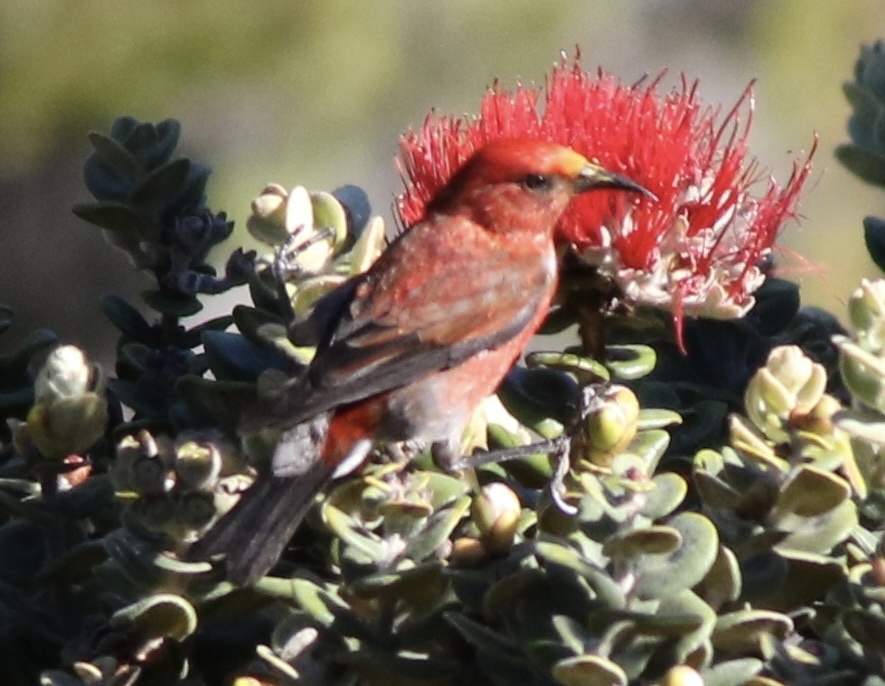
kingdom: Animalia
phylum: Chordata
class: Aves
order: Passeriformes
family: Fringillidae
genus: Himatione
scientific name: Himatione sanguinea
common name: Apapane
